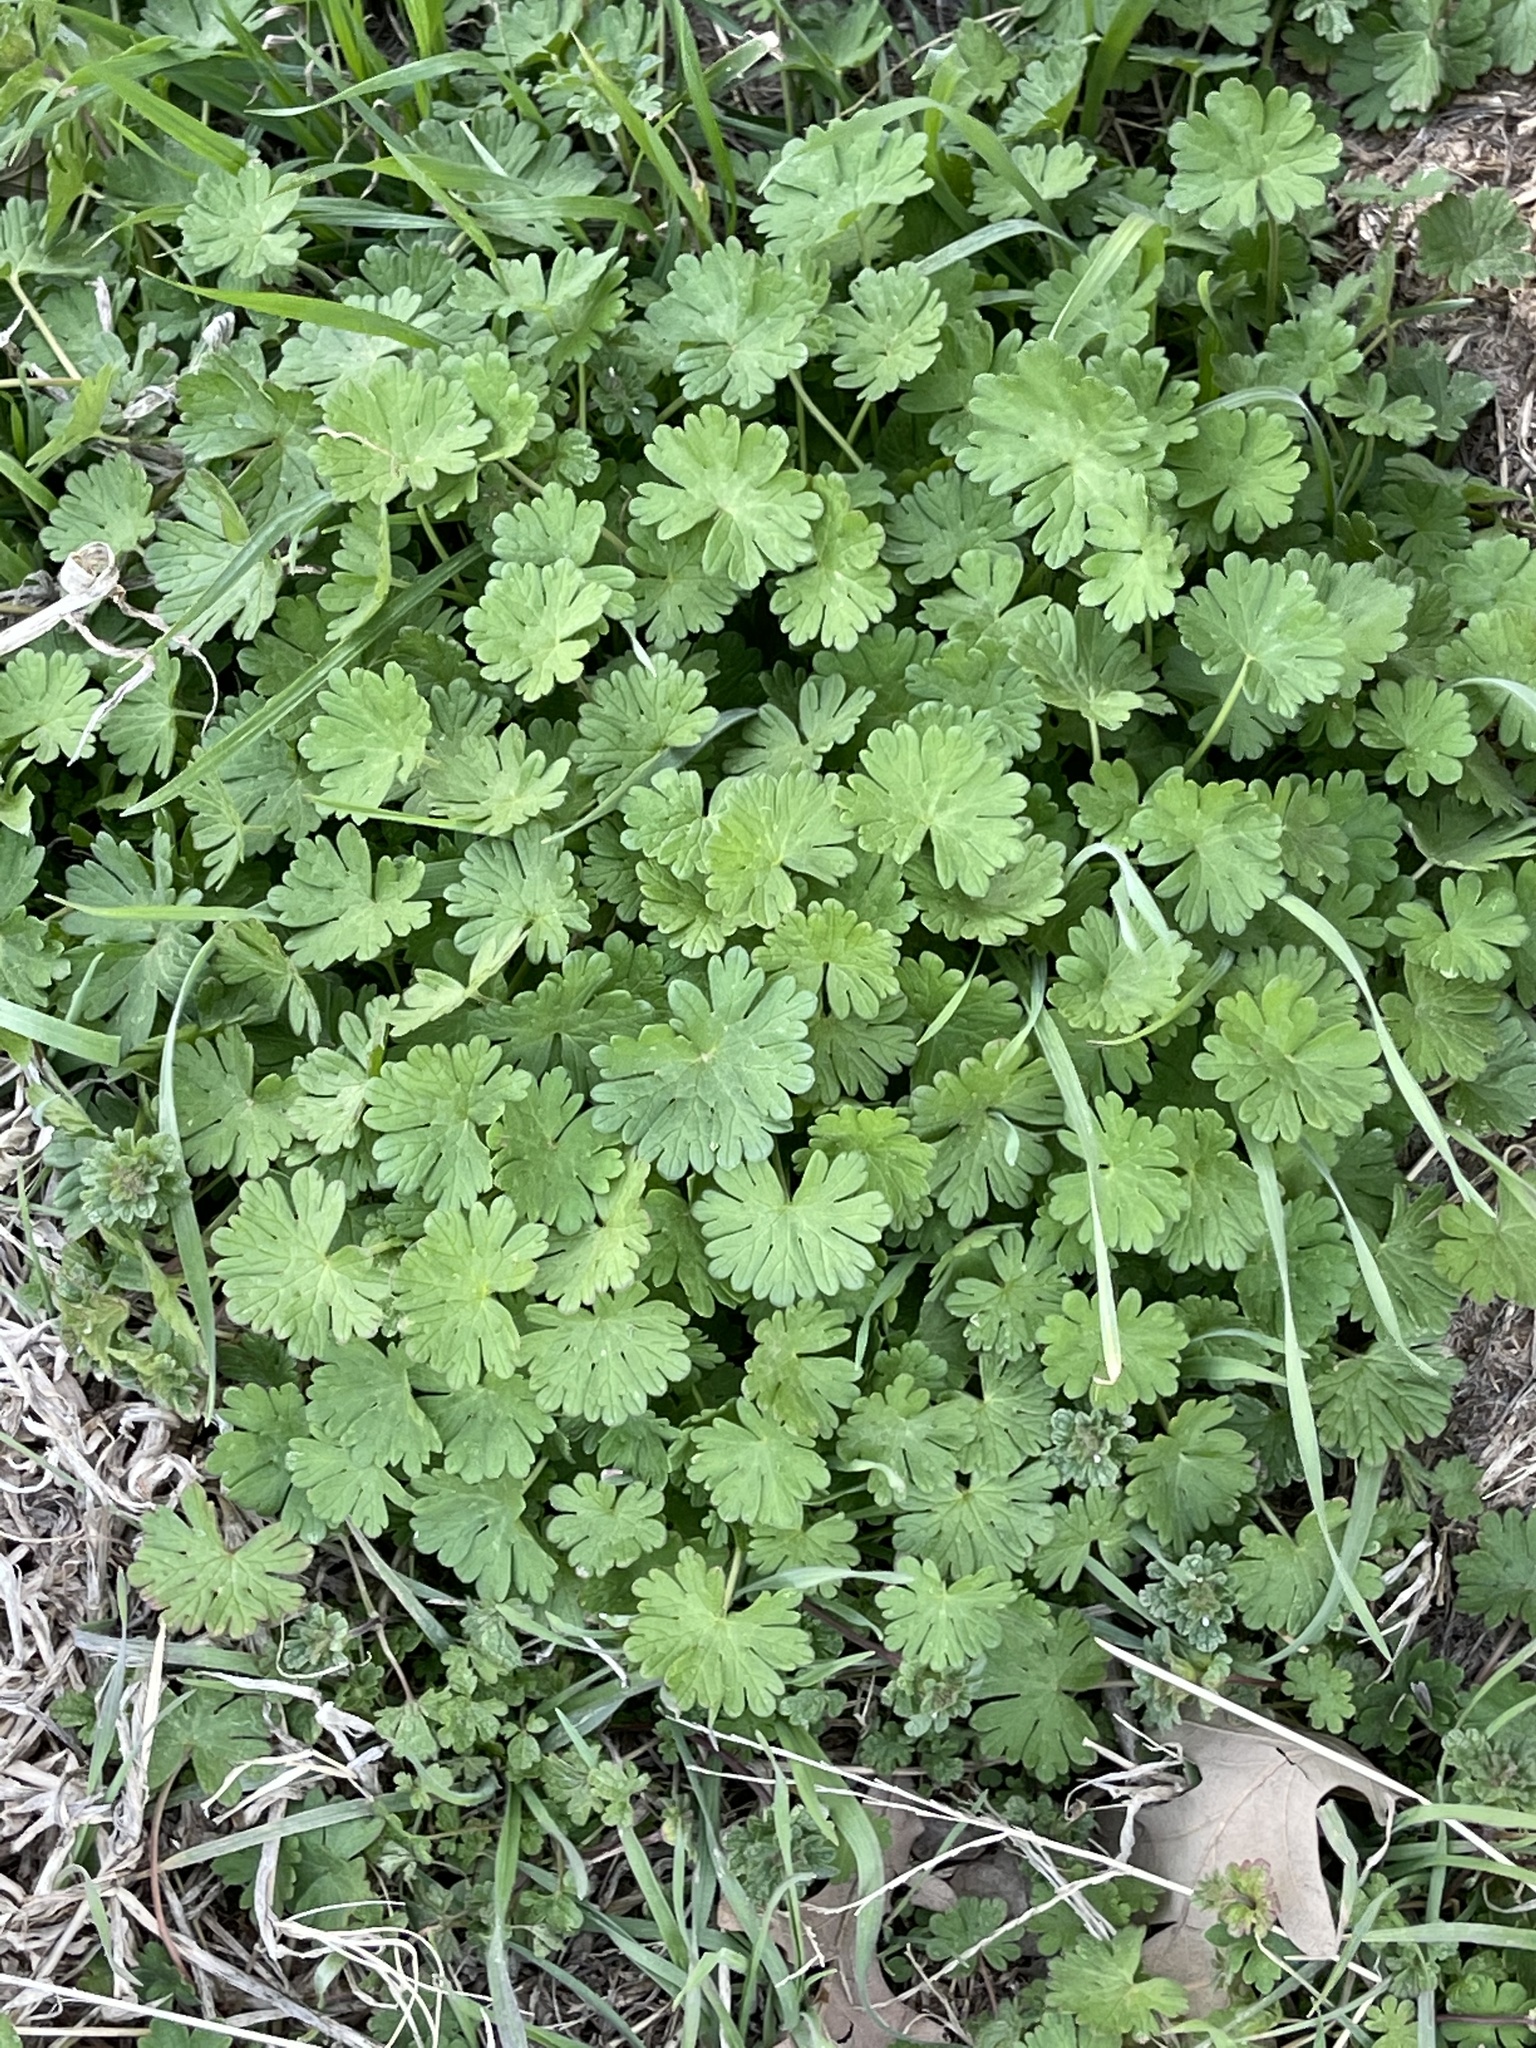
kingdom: Plantae
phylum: Tracheophyta
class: Magnoliopsida
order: Geraniales
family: Geraniaceae
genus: Geranium
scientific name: Geranium pusillum
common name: Small geranium
